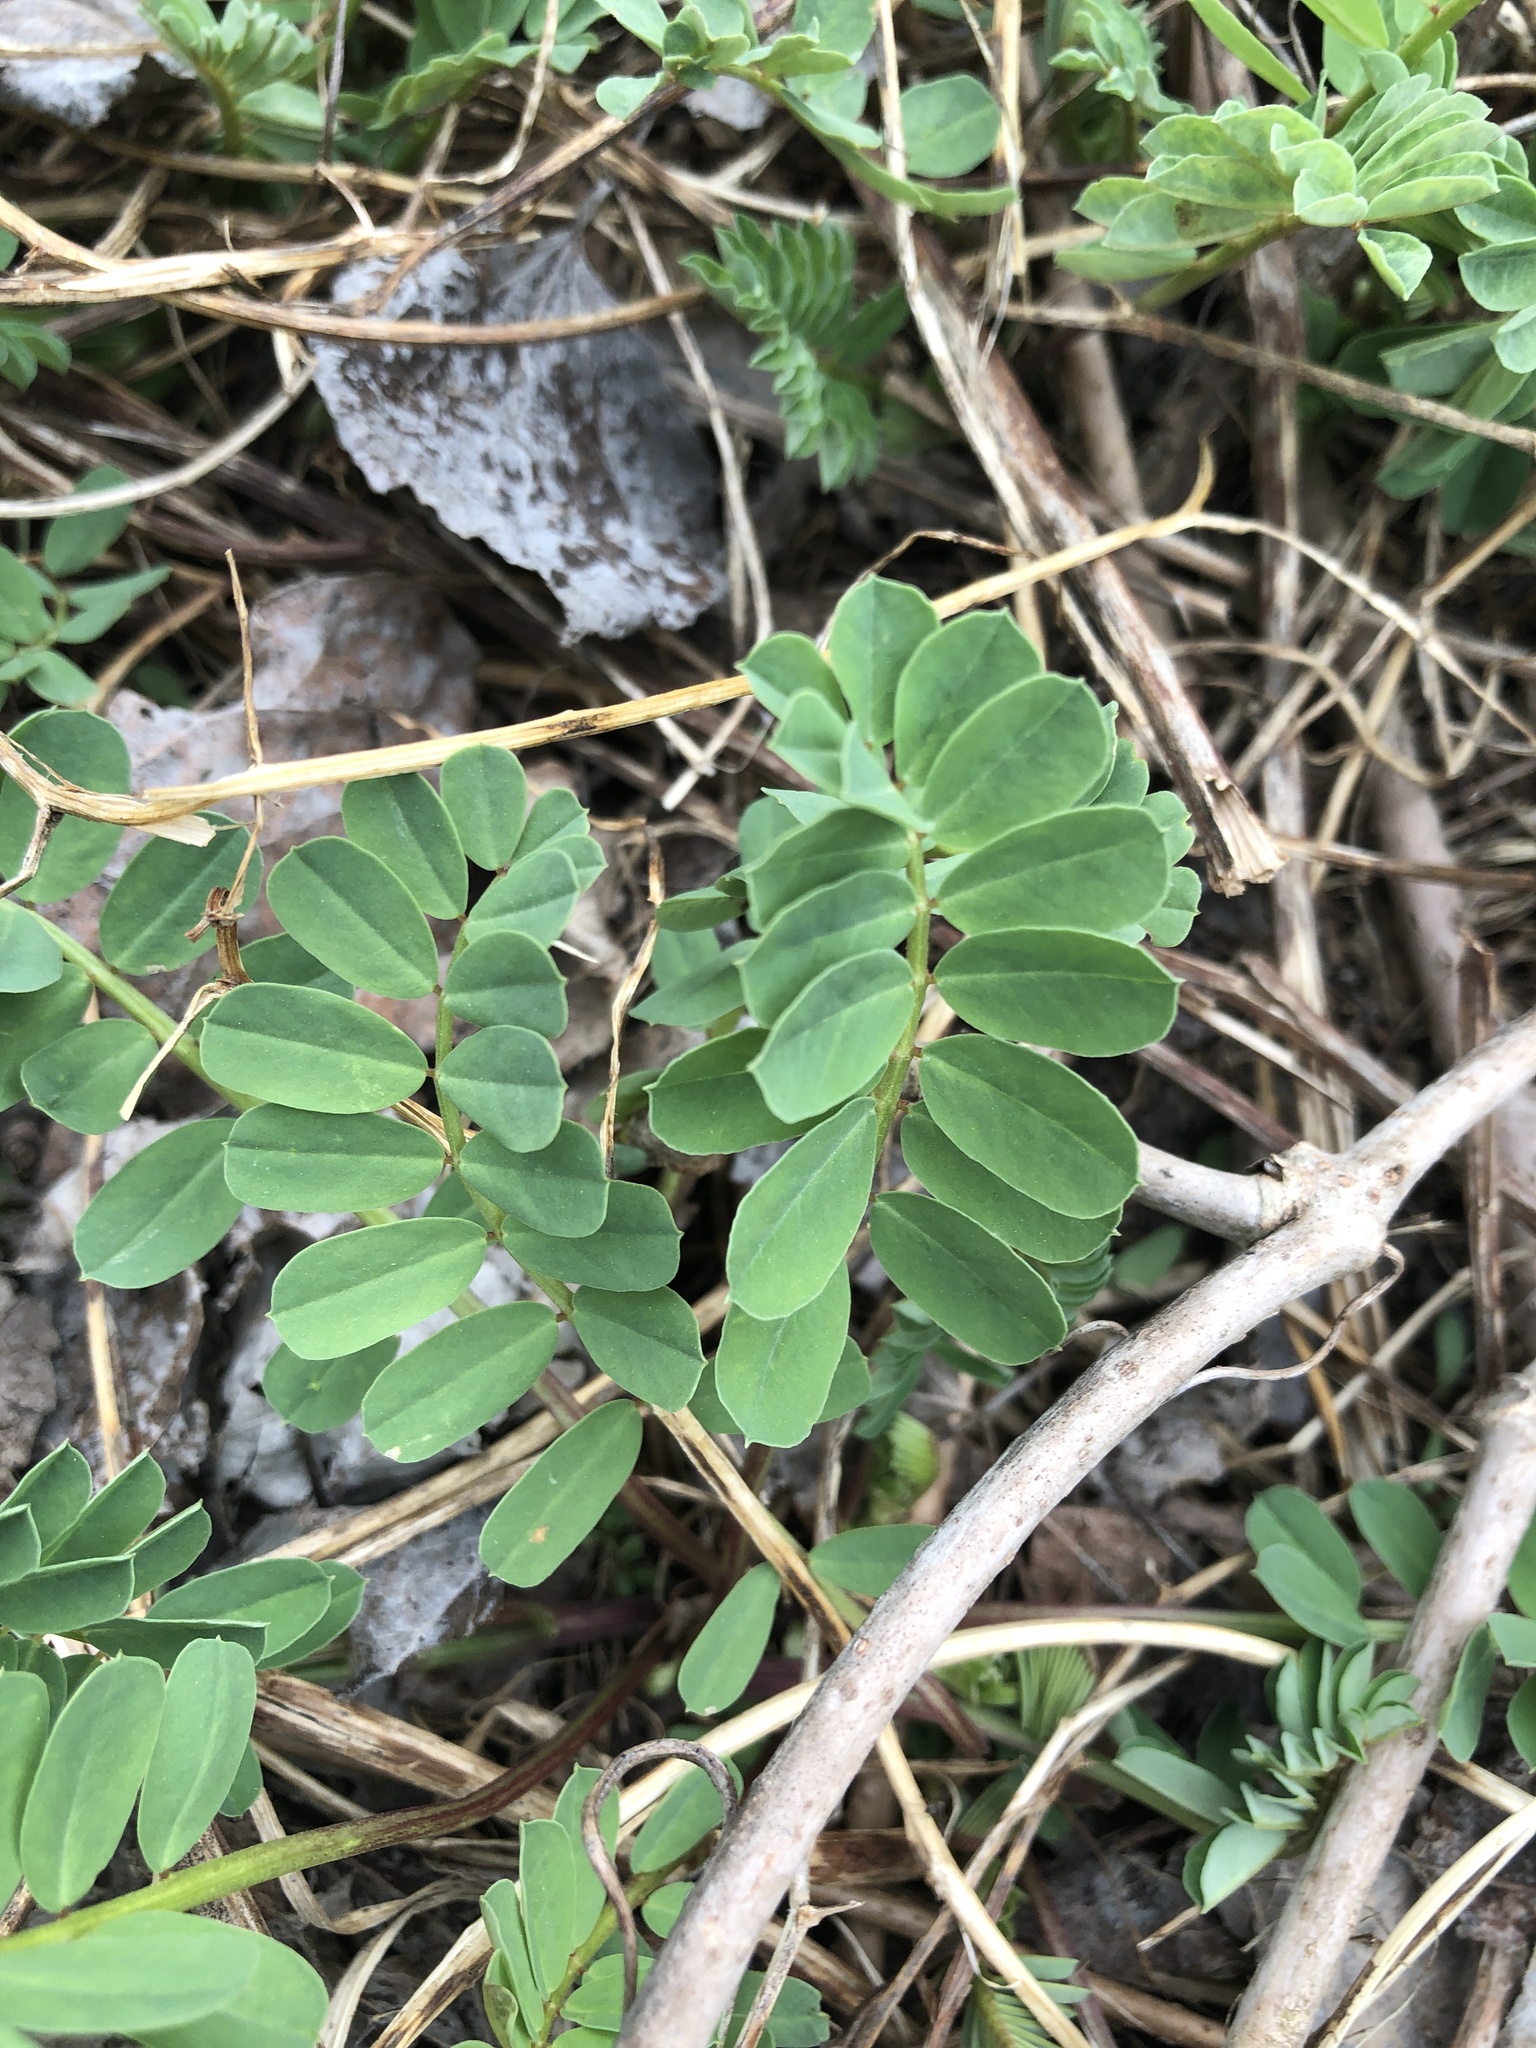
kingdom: Plantae
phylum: Tracheophyta
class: Magnoliopsida
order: Fabales
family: Fabaceae
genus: Coronilla
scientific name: Coronilla varia
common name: Crownvetch
